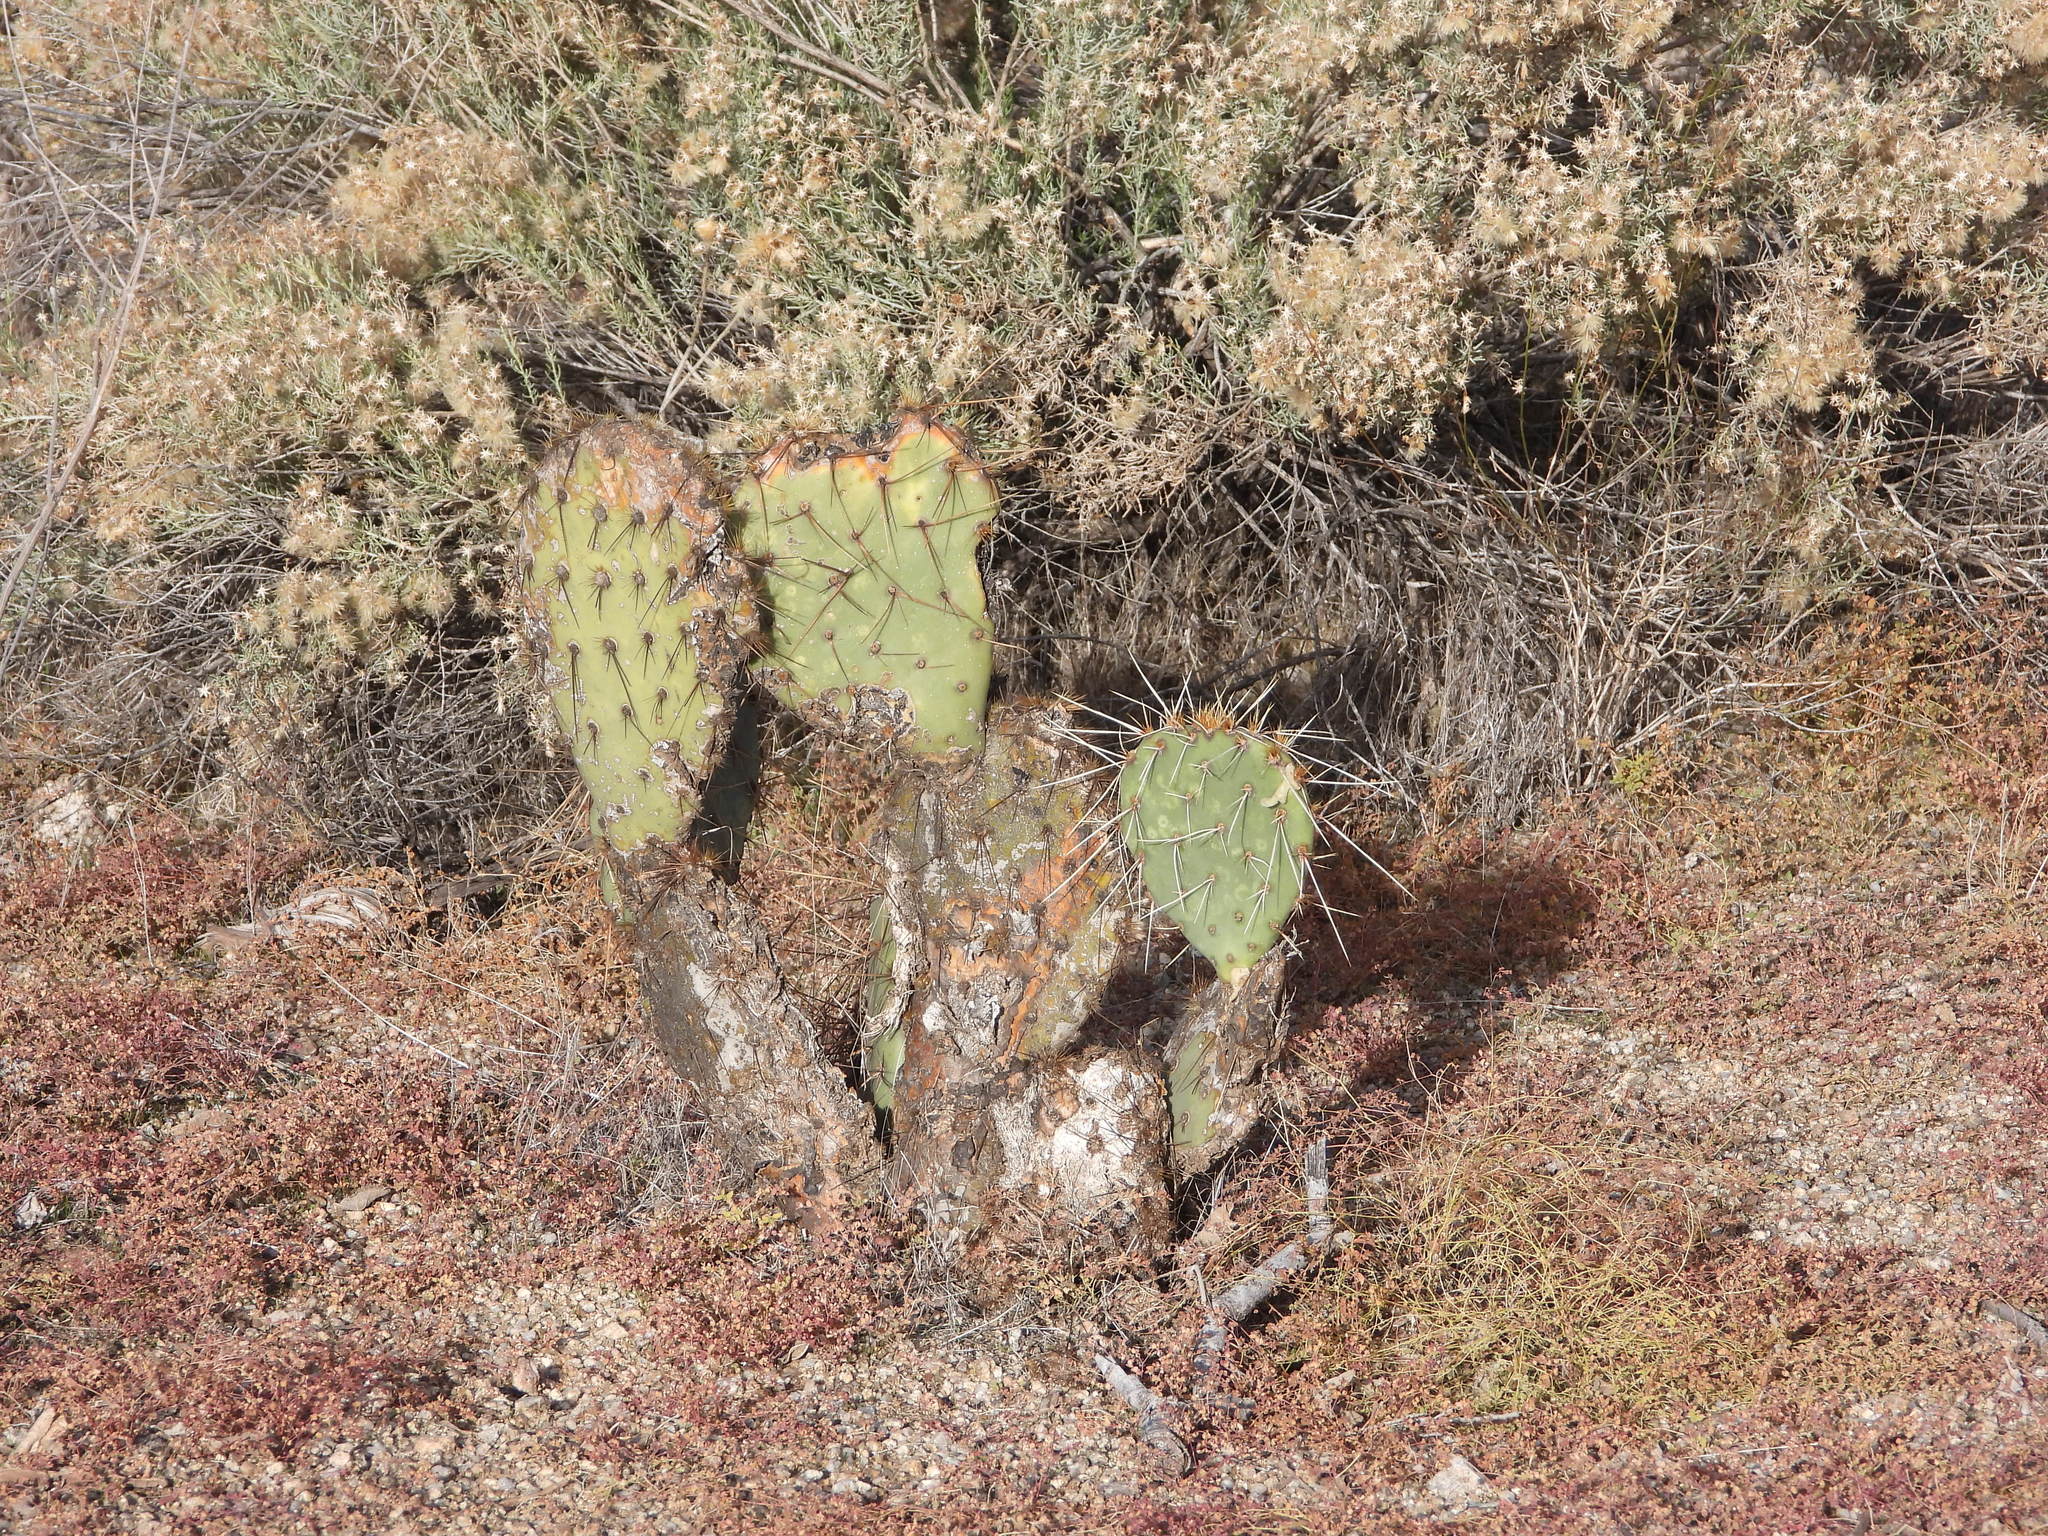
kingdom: Plantae
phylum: Tracheophyta
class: Magnoliopsida
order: Caryophyllales
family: Cactaceae
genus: Opuntia
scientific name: Opuntia engelmannii
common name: Cactus-apple
